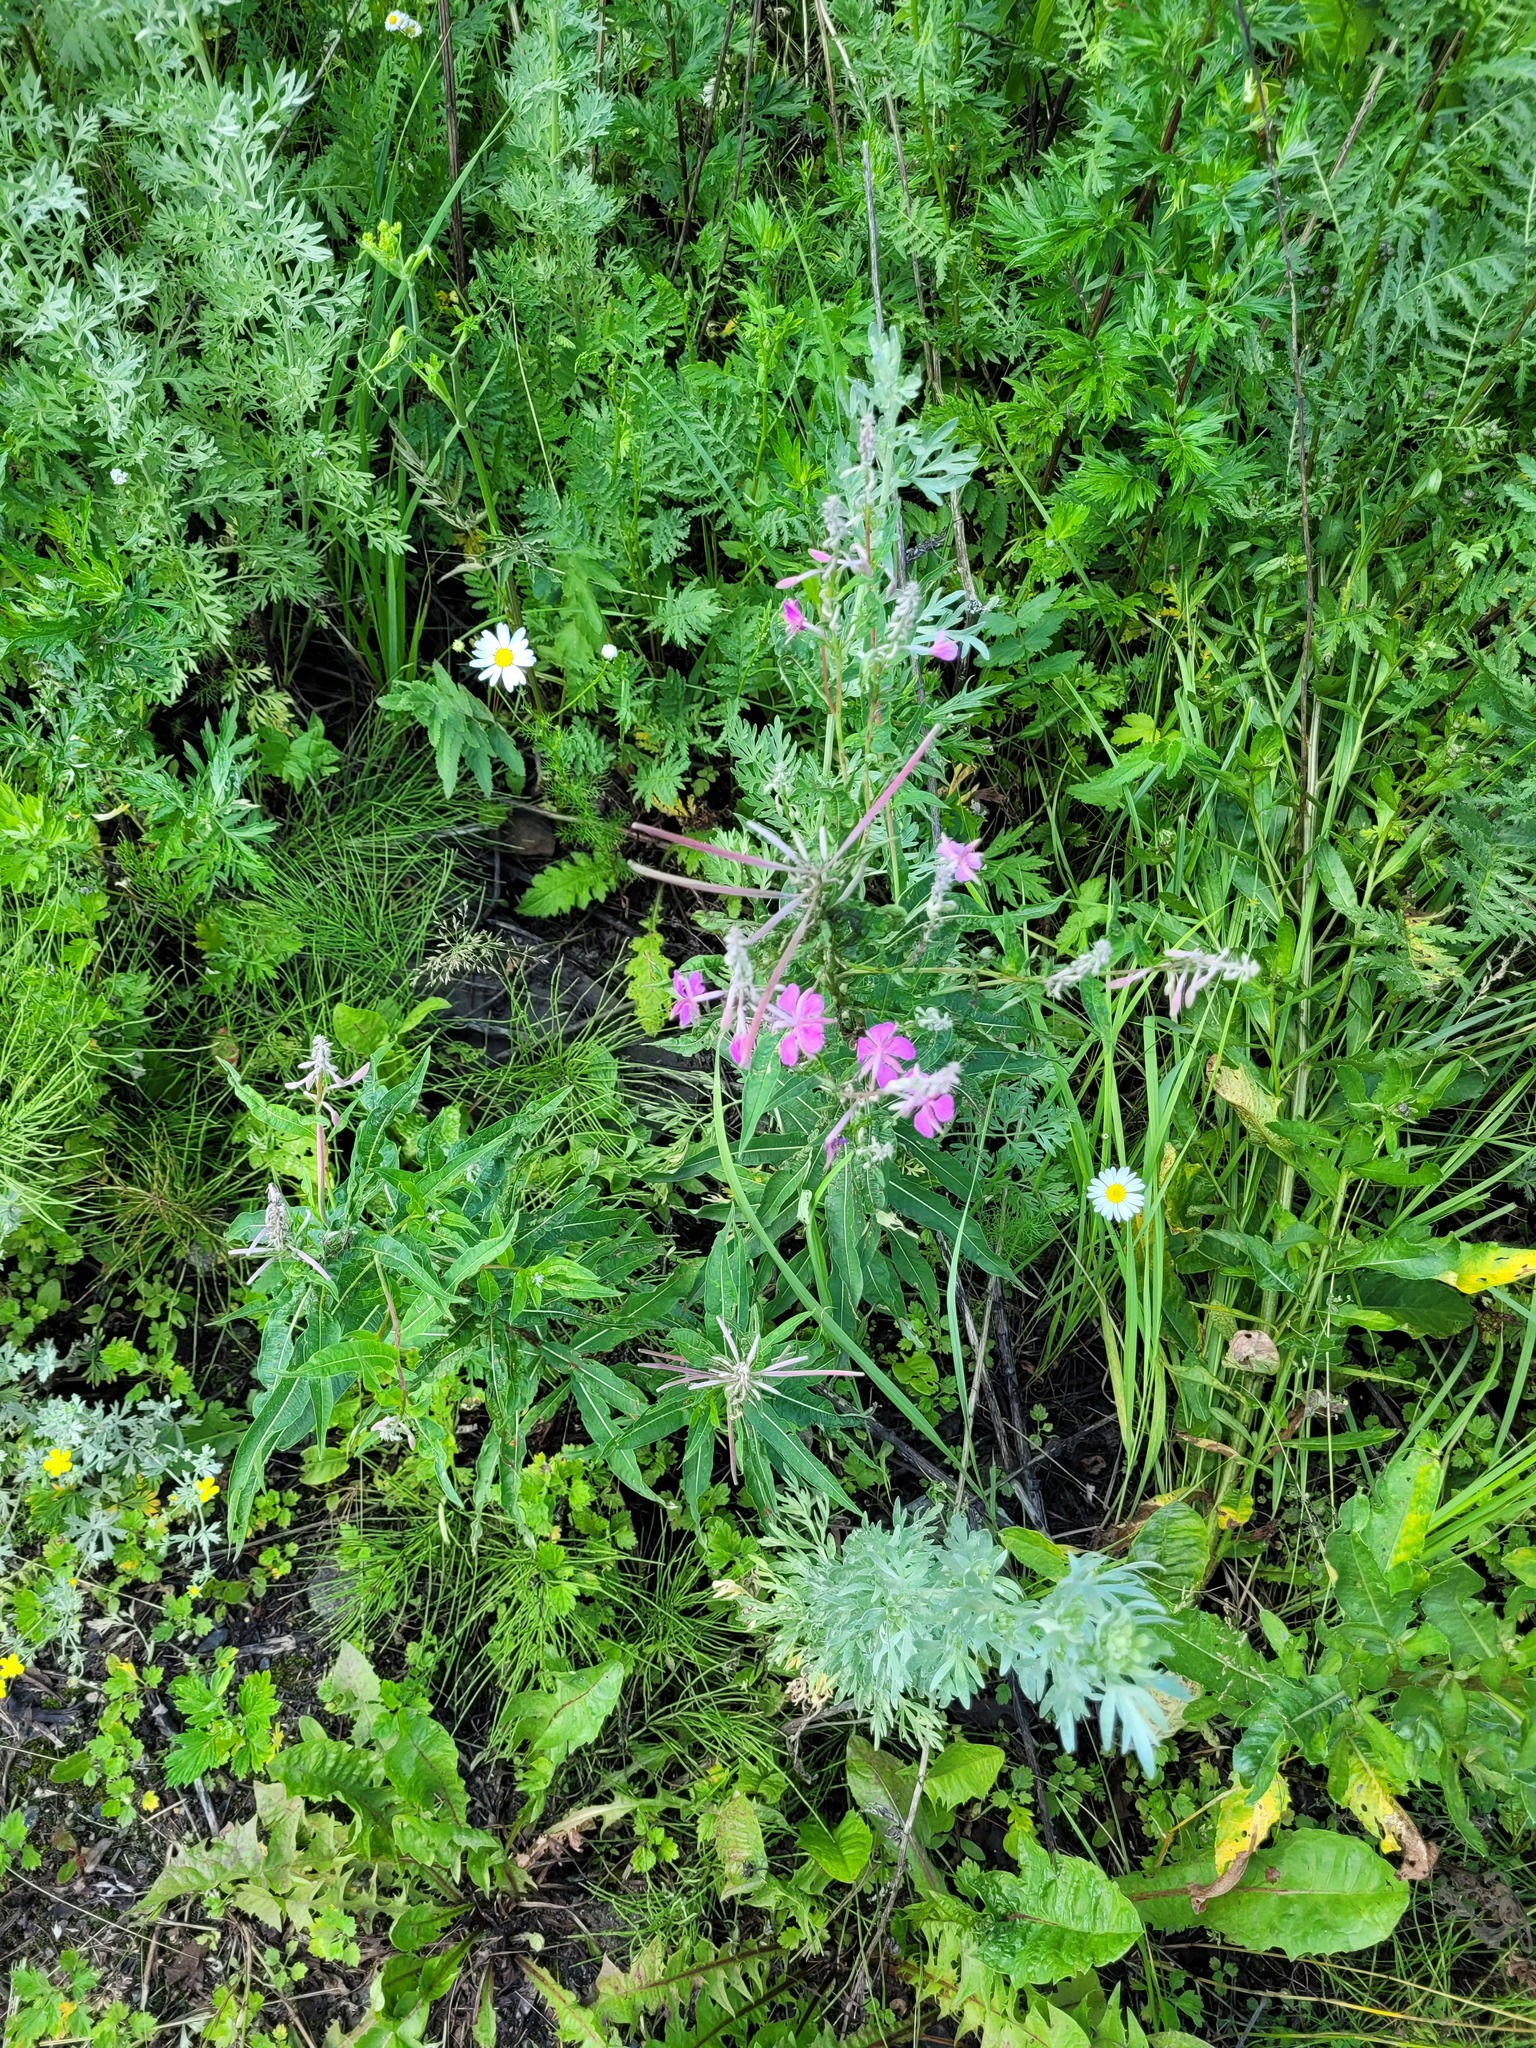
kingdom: Plantae
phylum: Tracheophyta
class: Magnoliopsida
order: Myrtales
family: Onagraceae
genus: Chamaenerion
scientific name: Chamaenerion angustifolium
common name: Fireweed
